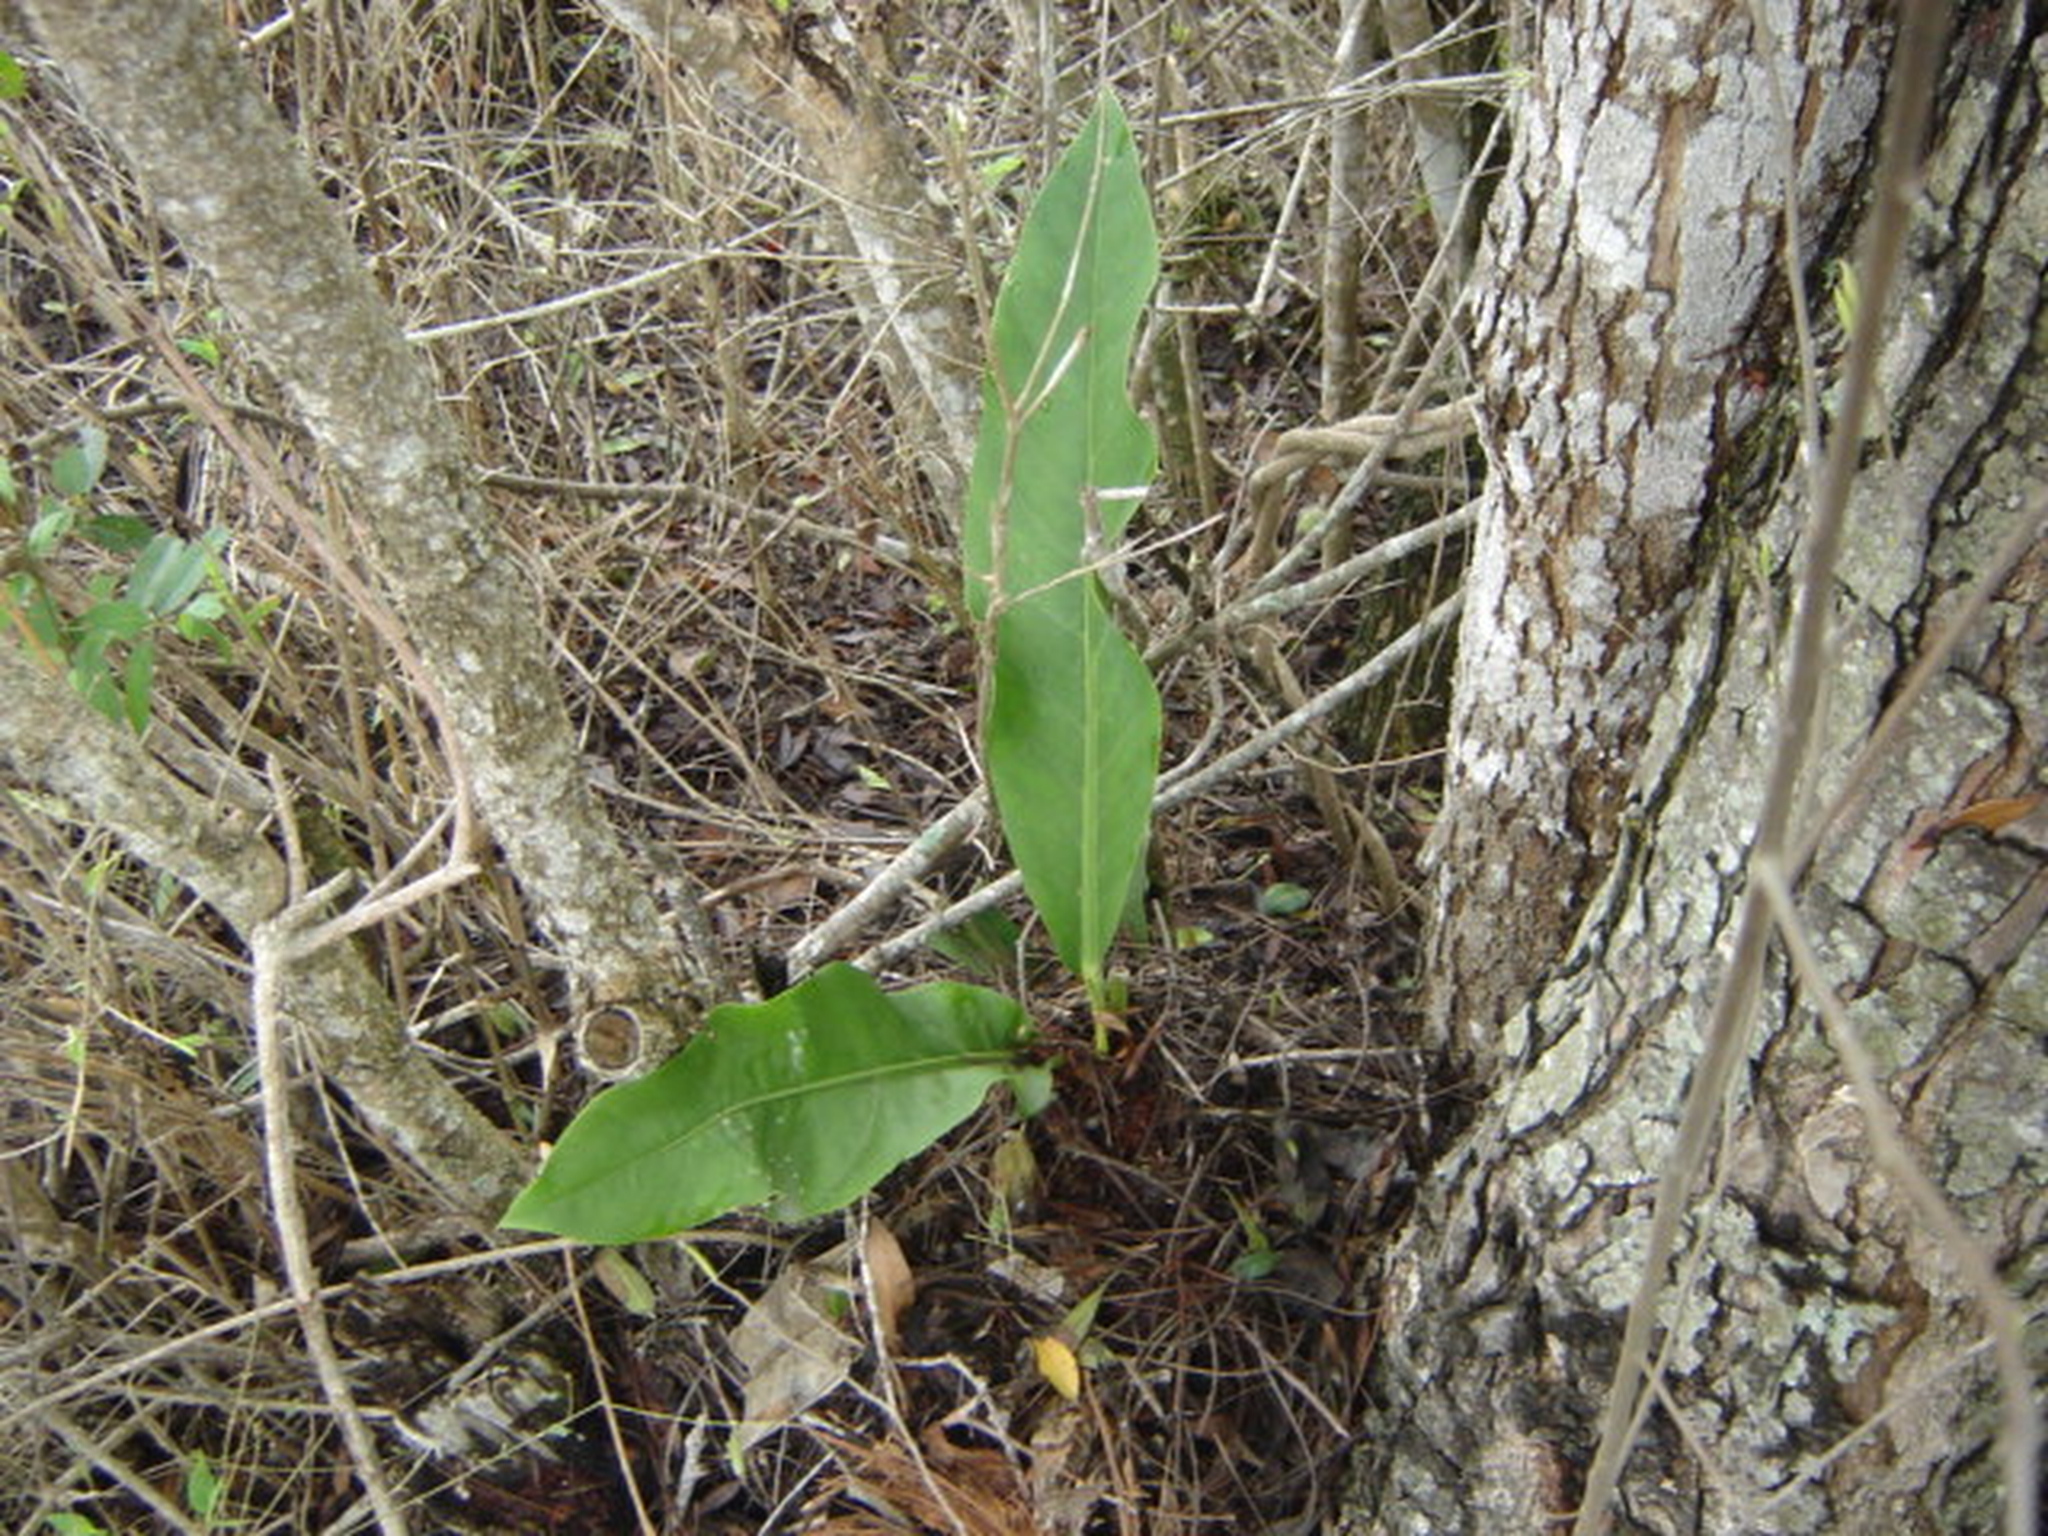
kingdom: Plantae
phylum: Tracheophyta
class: Liliopsida
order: Alismatales
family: Araceae
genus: Anthurium
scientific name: Anthurium schlechtendalii
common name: Laceleaf
